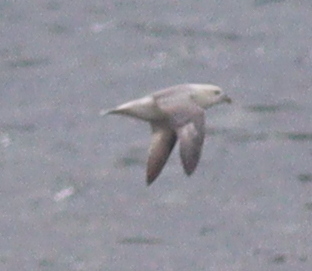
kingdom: Animalia
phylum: Chordata
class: Aves
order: Procellariiformes
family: Procellariidae
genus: Fulmarus
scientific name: Fulmarus glacialis
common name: Northern fulmar
